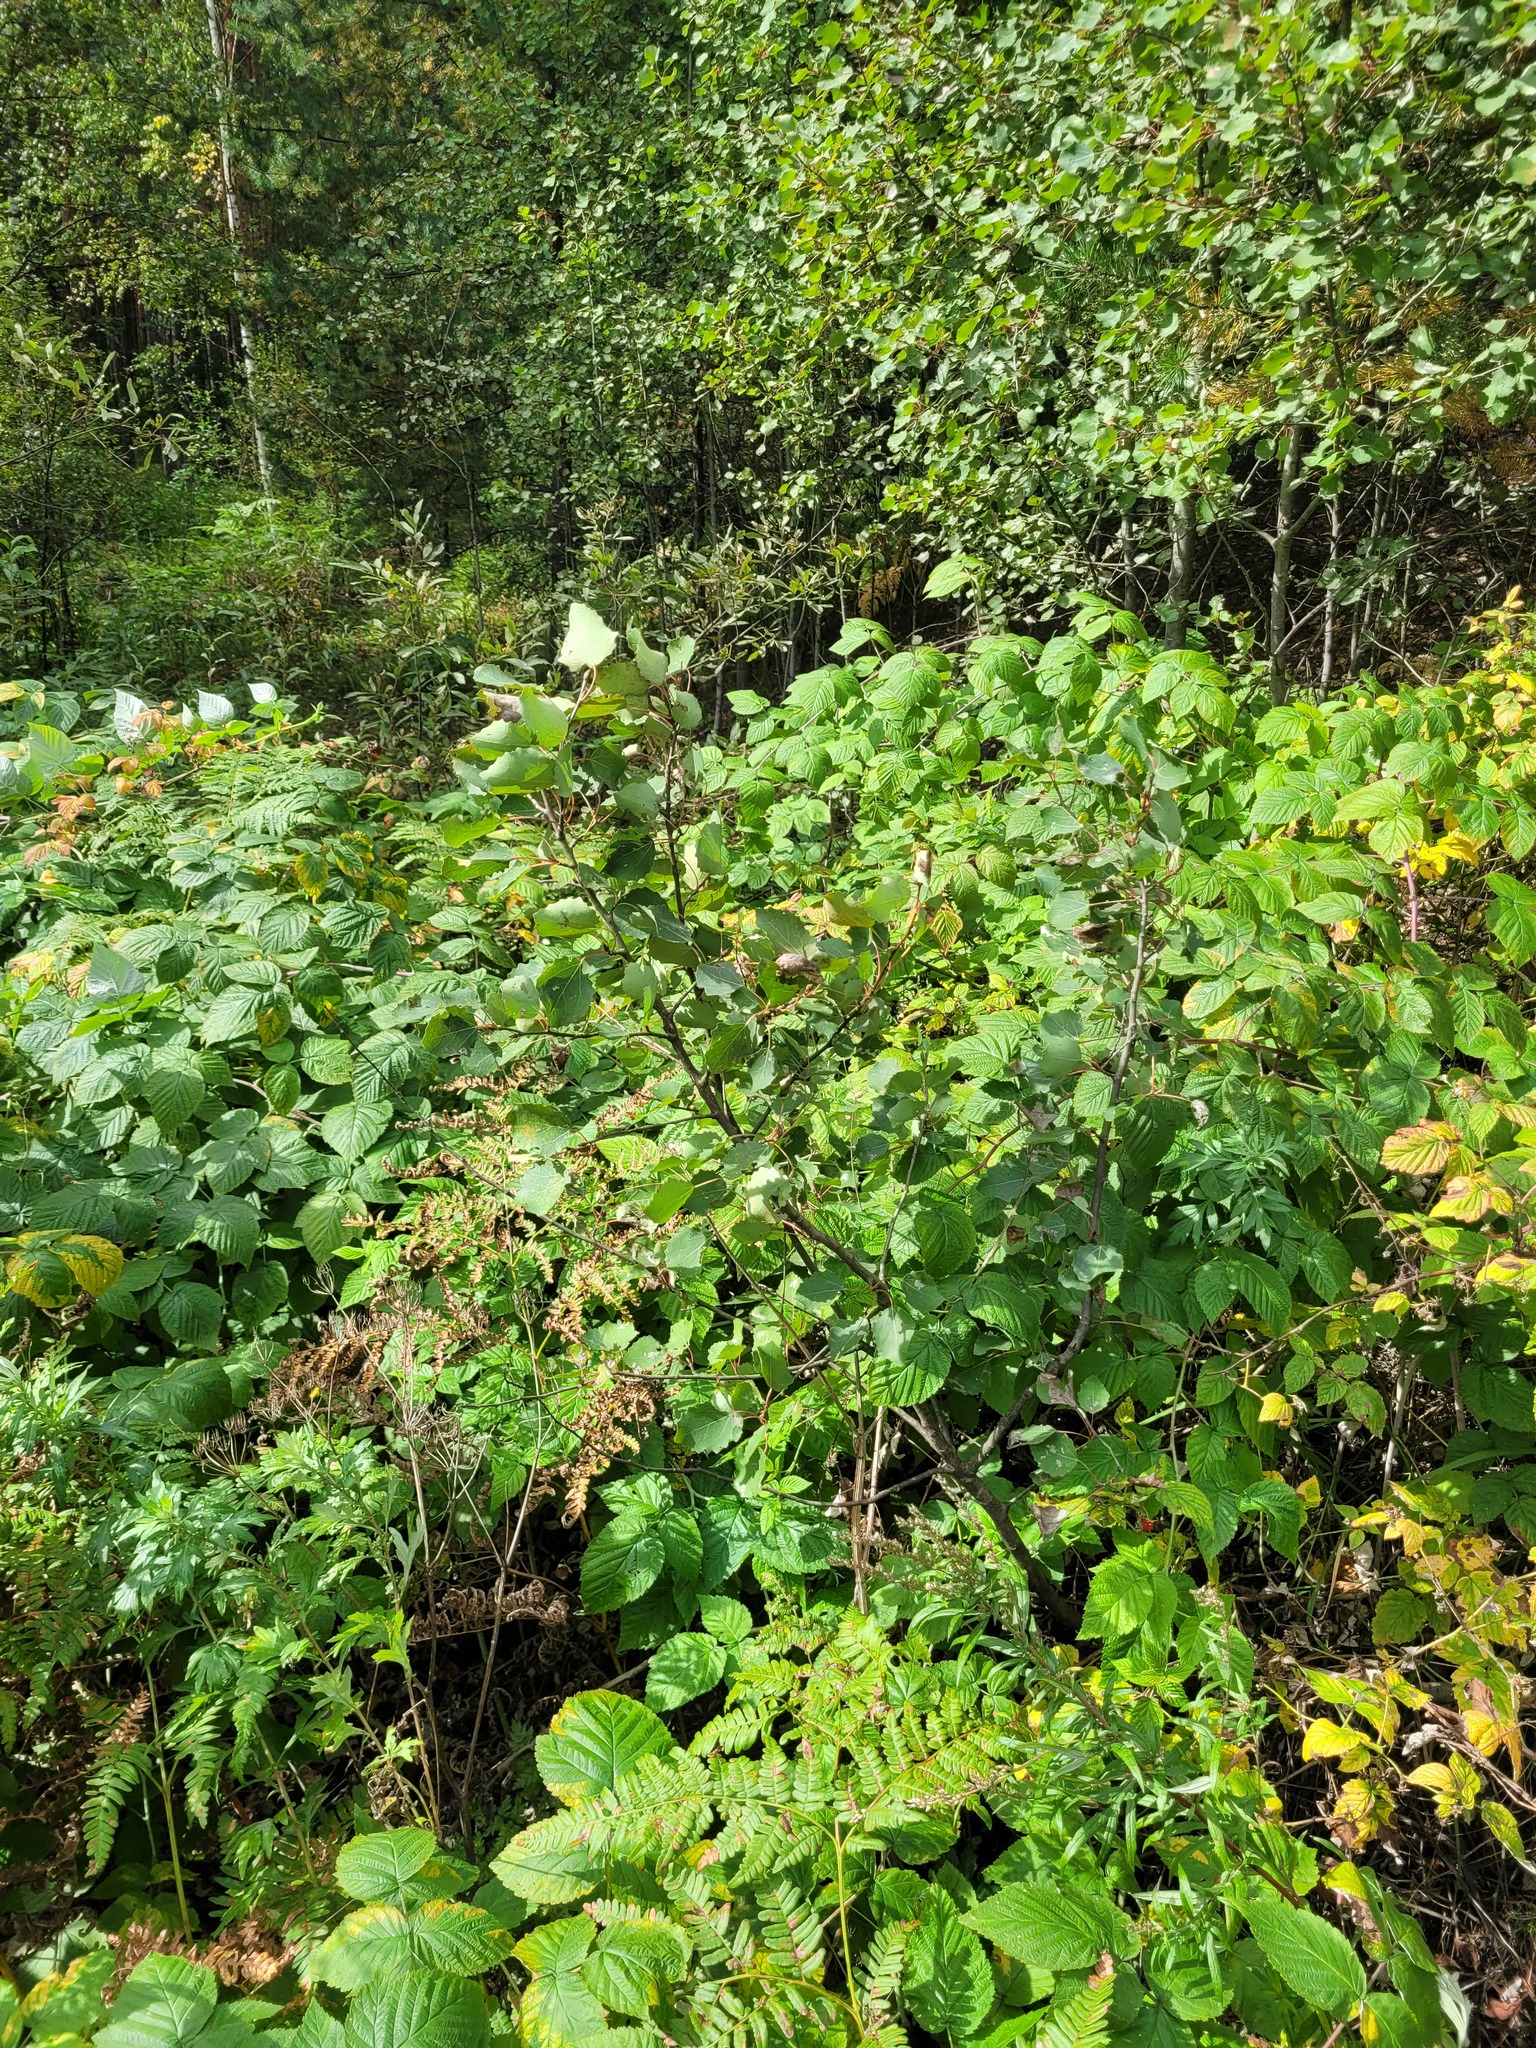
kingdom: Plantae
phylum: Tracheophyta
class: Magnoliopsida
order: Malpighiales
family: Salicaceae
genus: Populus
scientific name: Populus tremula
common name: European aspen
